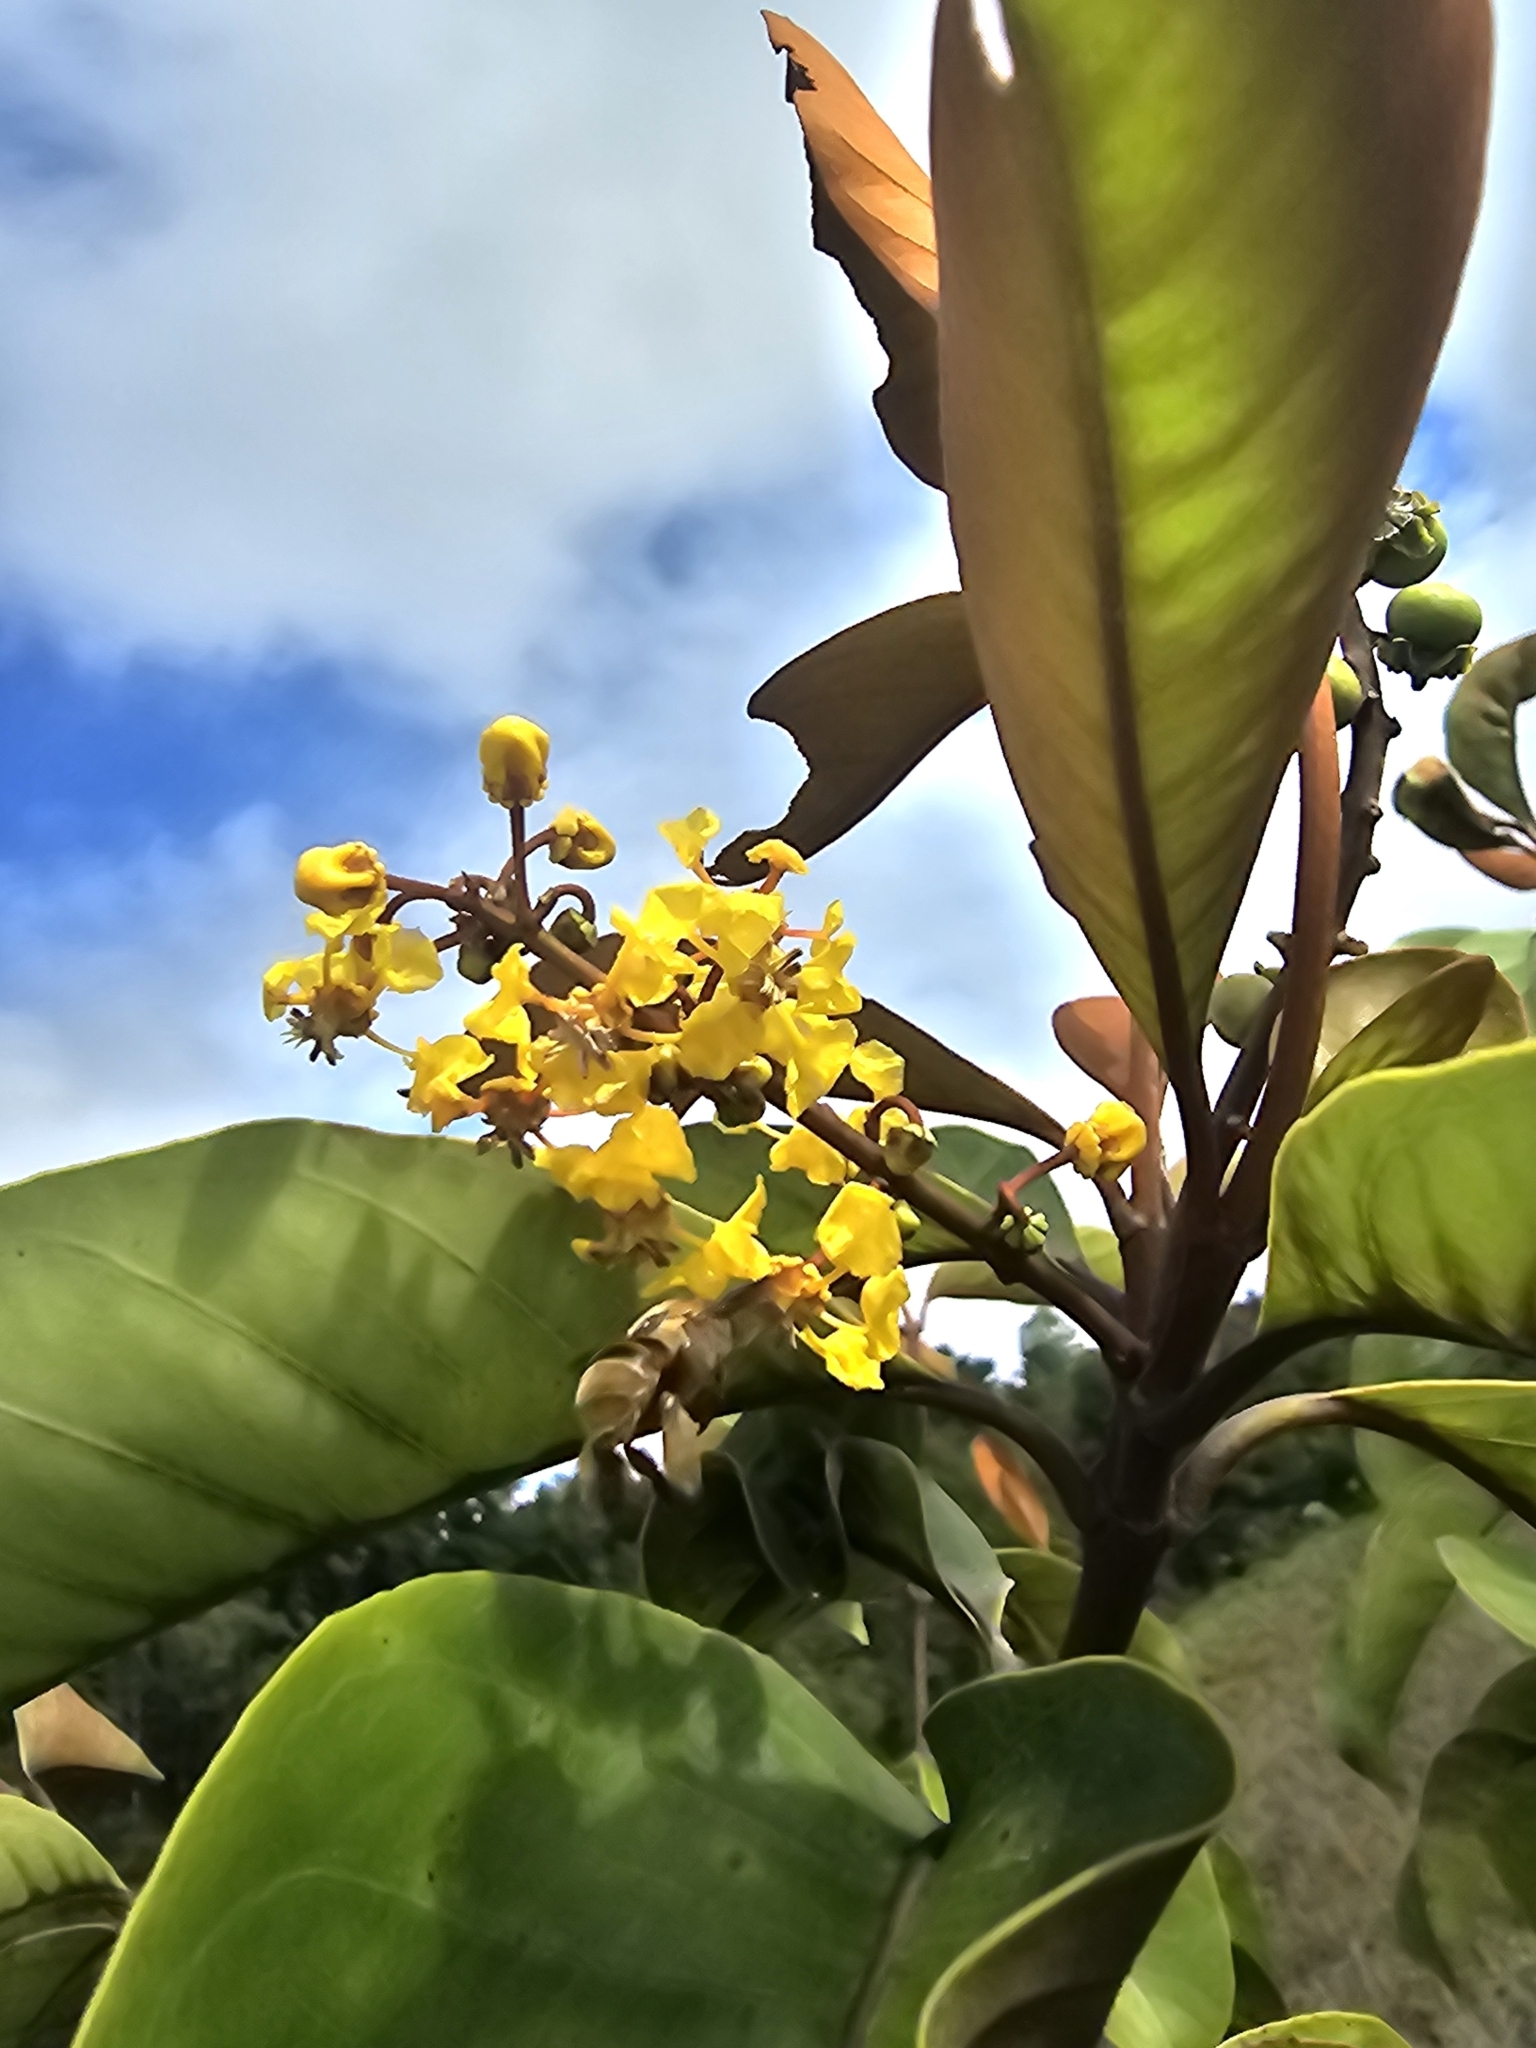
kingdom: Plantae
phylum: Tracheophyta
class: Magnoliopsida
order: Malpighiales
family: Malpighiaceae
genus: Byrsonima
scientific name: Byrsonima crassifolia
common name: Golden spoon
